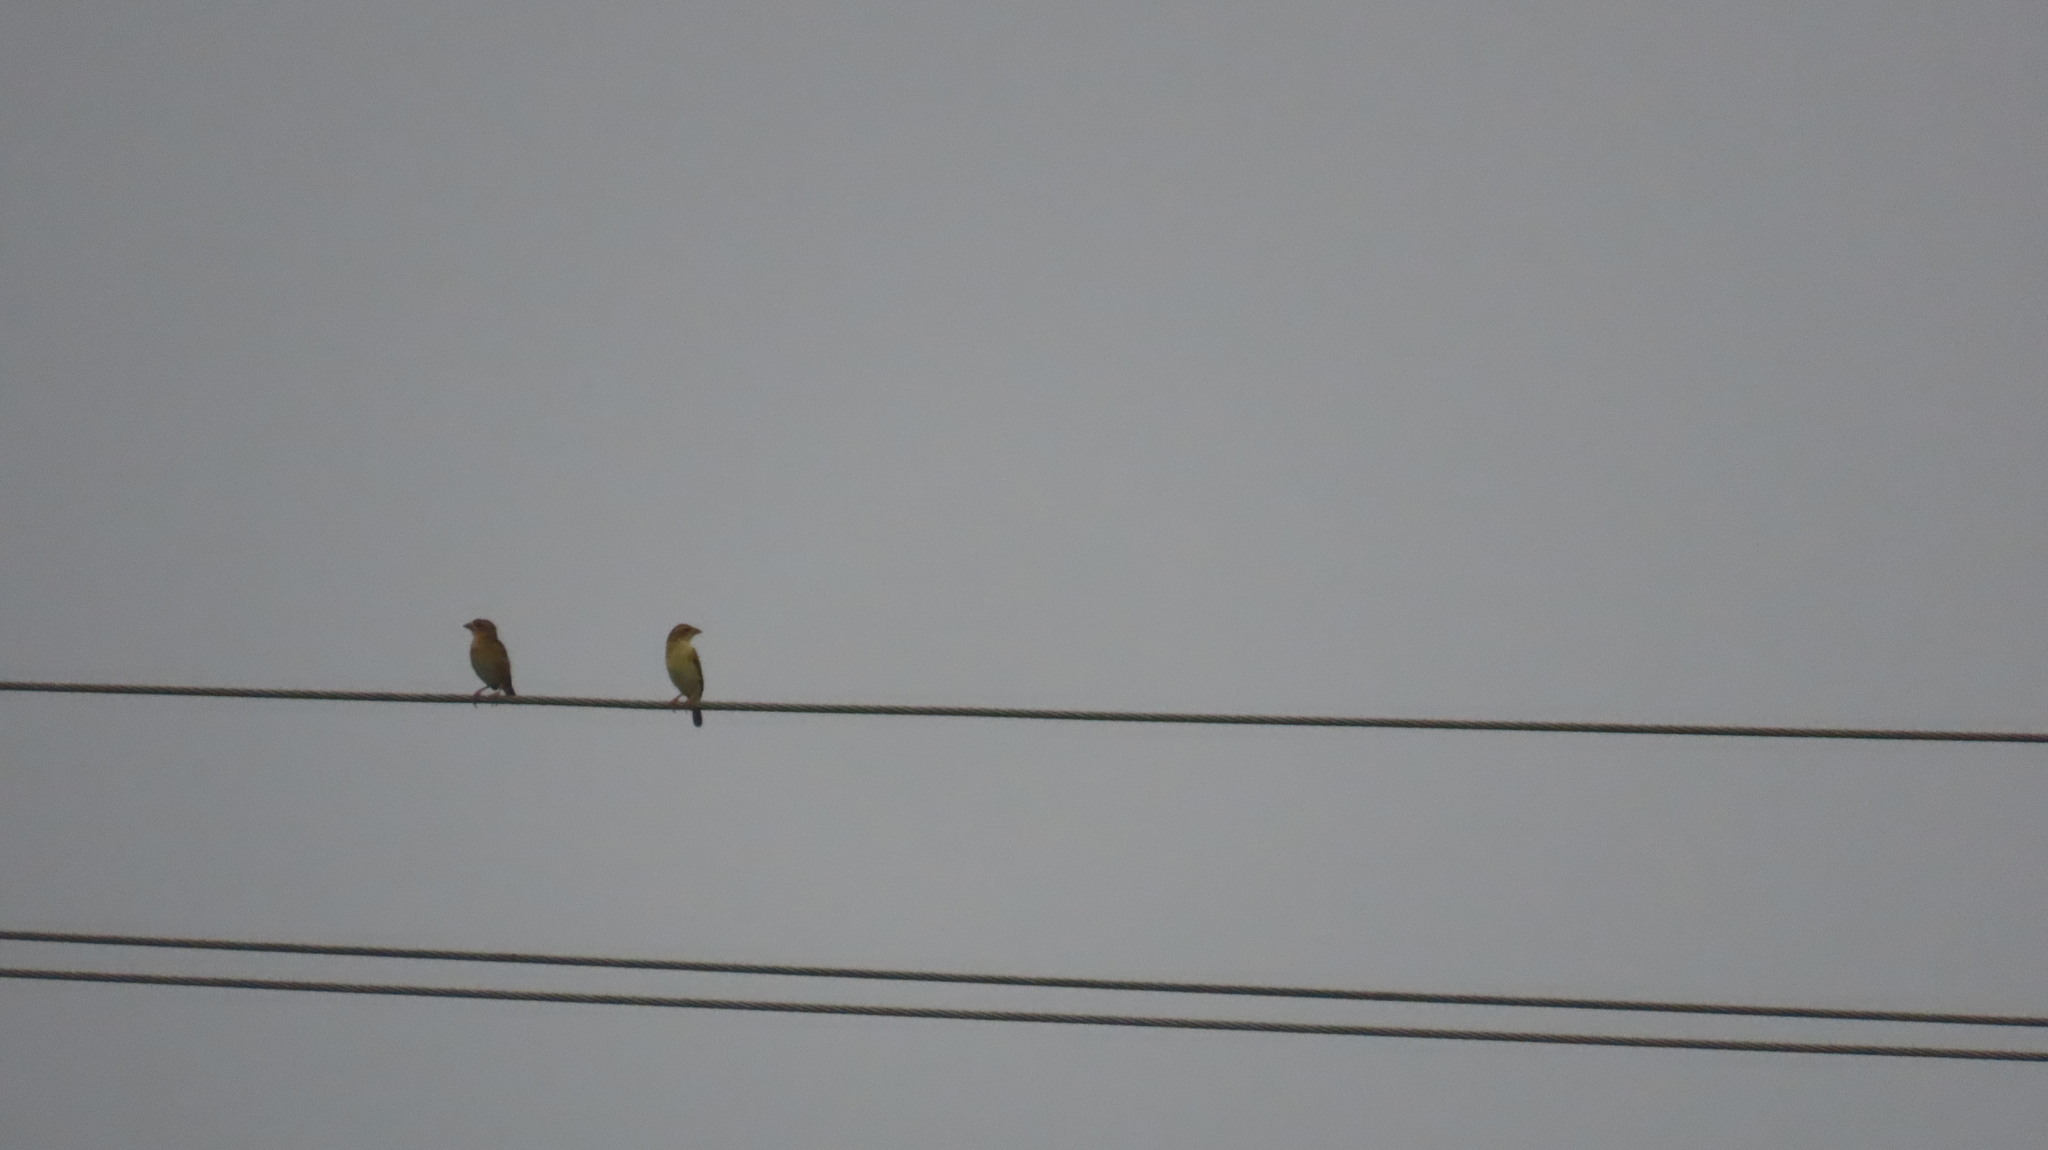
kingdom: Animalia
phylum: Chordata
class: Aves
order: Passeriformes
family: Ploceidae
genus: Ploceus
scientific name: Ploceus philippinus
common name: Baya weaver
